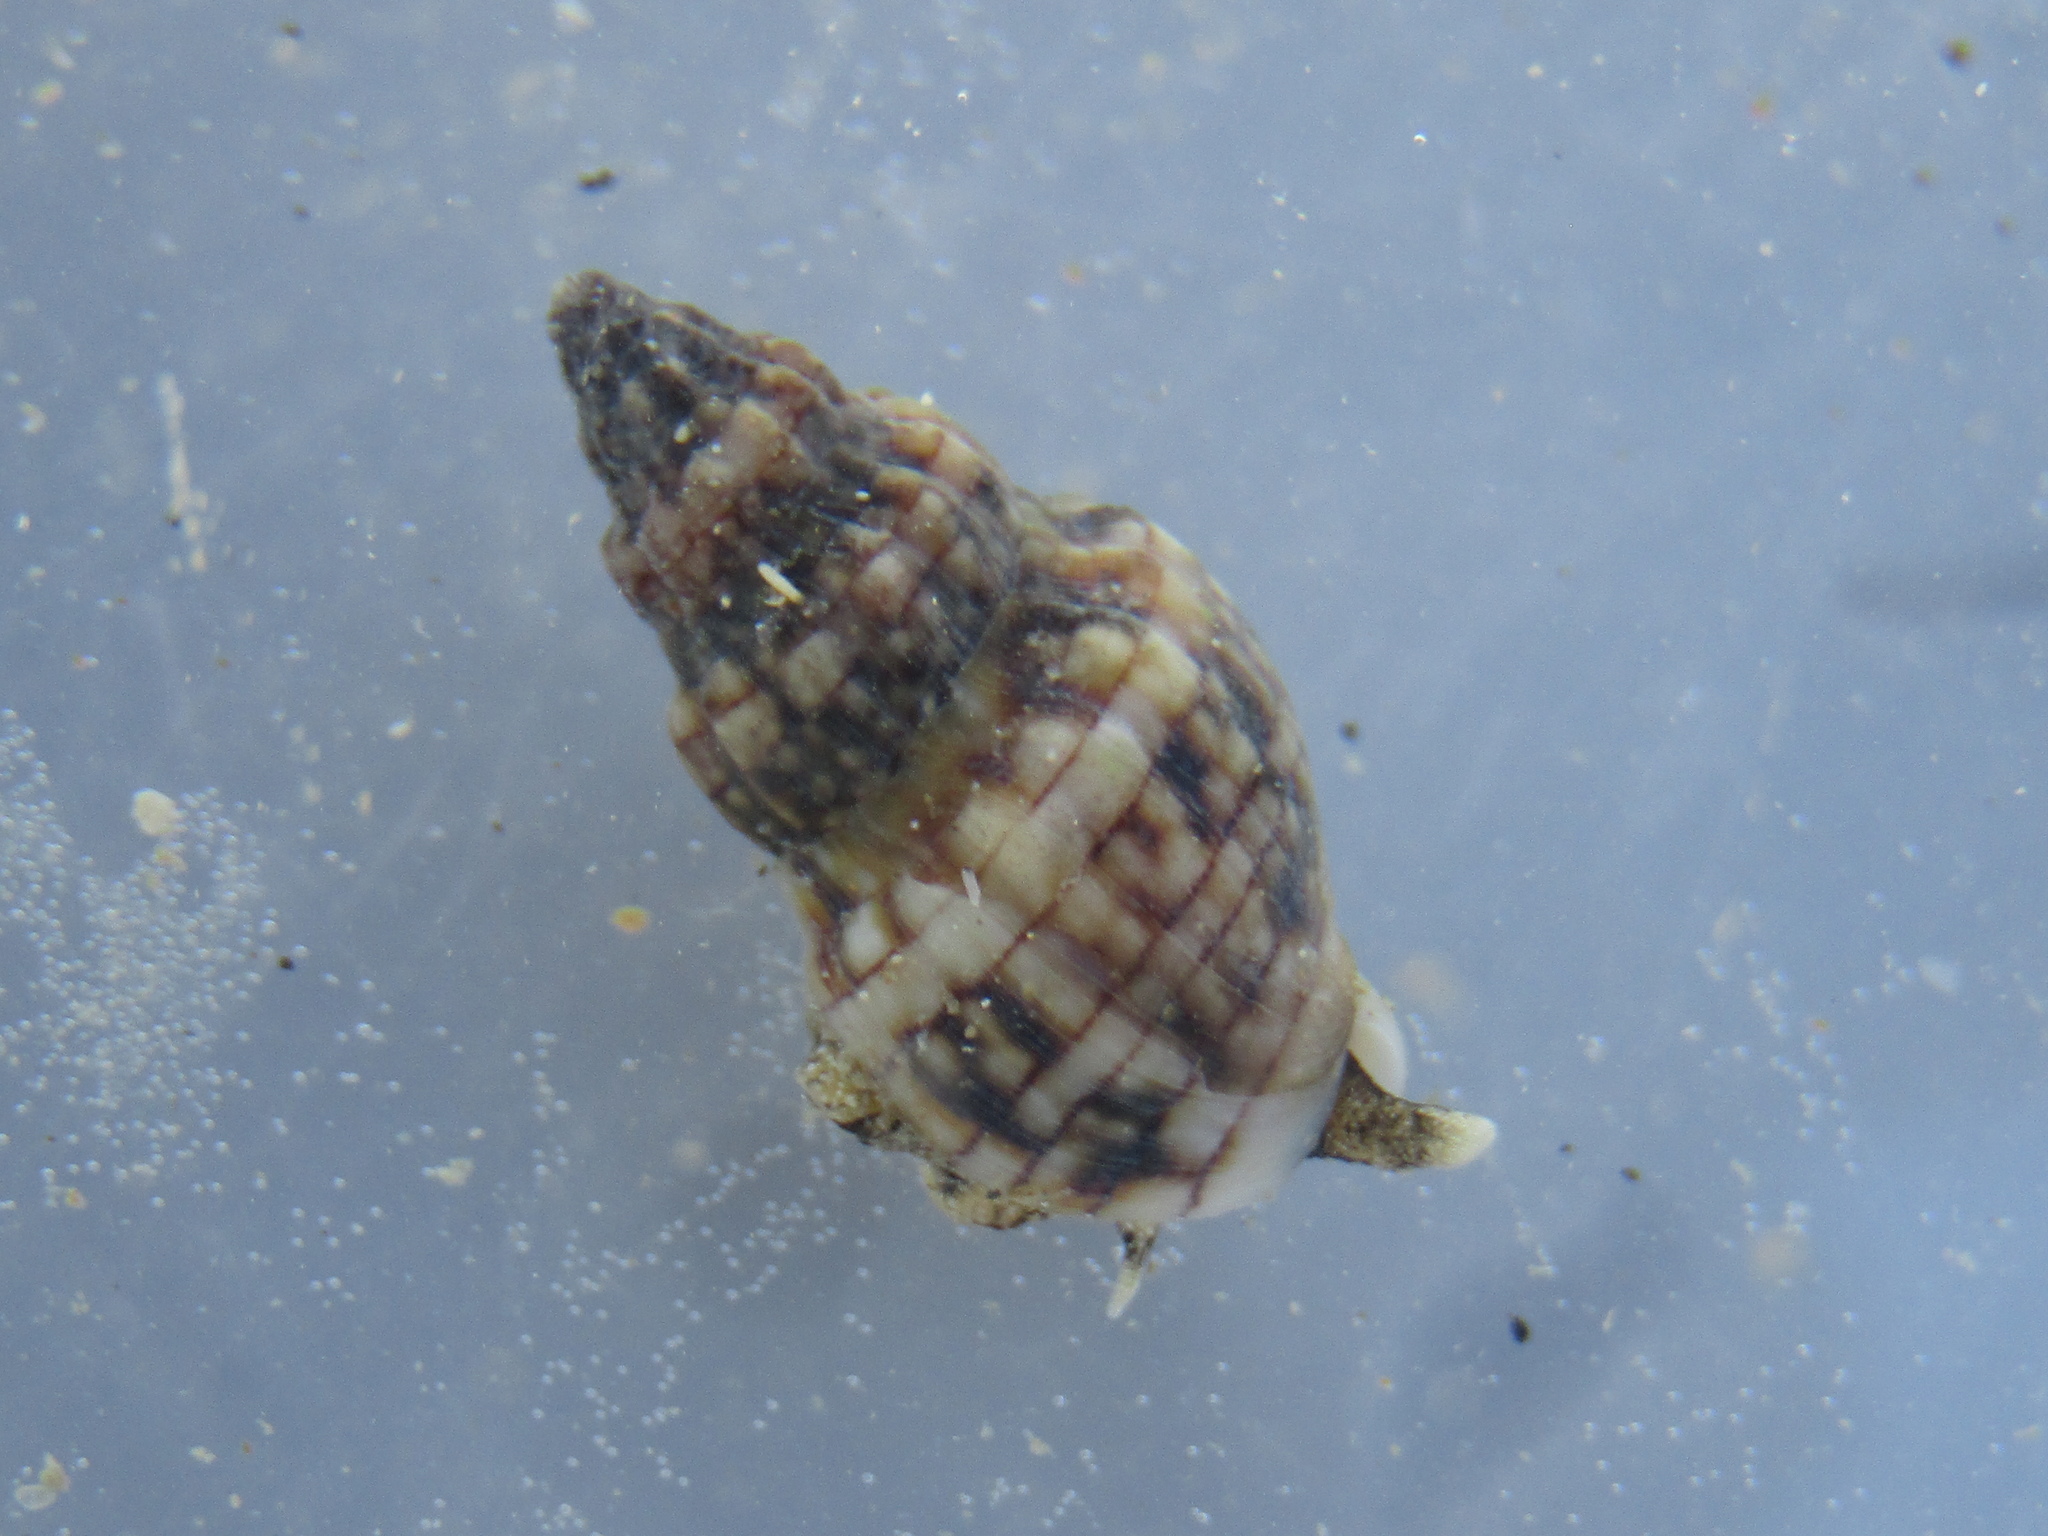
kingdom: Animalia
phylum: Mollusca
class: Gastropoda
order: Neogastropoda
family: Cominellidae
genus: Cominella
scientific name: Cominella quoyana
